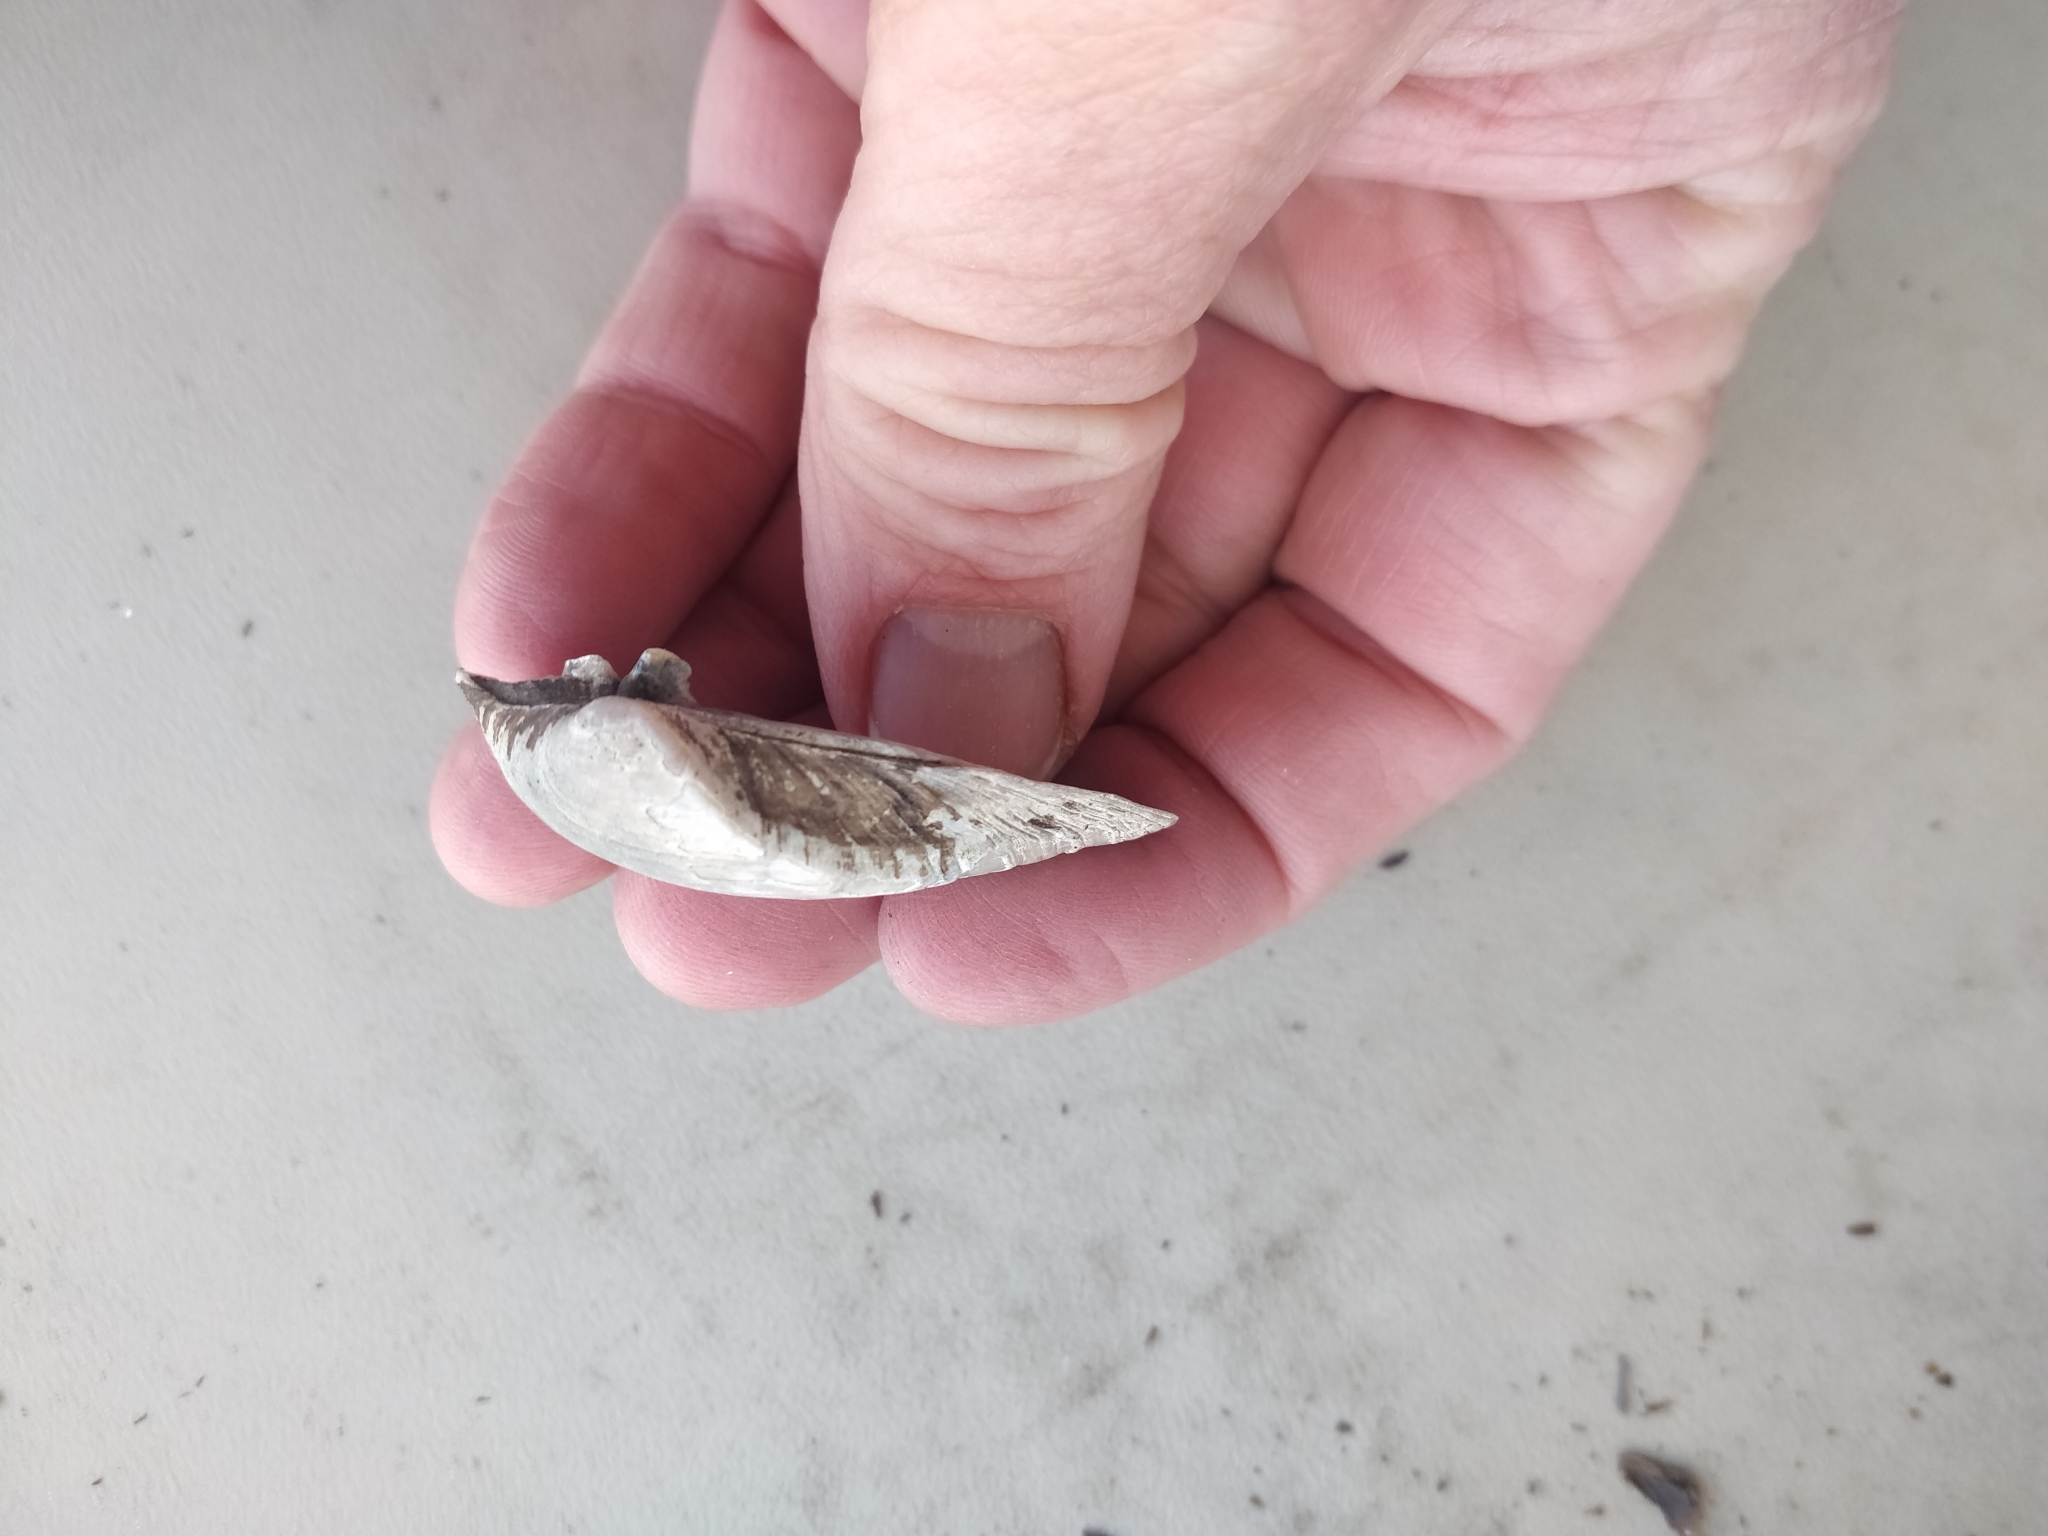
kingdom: Animalia
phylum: Mollusca
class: Bivalvia
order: Unionida
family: Unionidae
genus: Truncilla
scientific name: Truncilla truncata
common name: Deertoe
